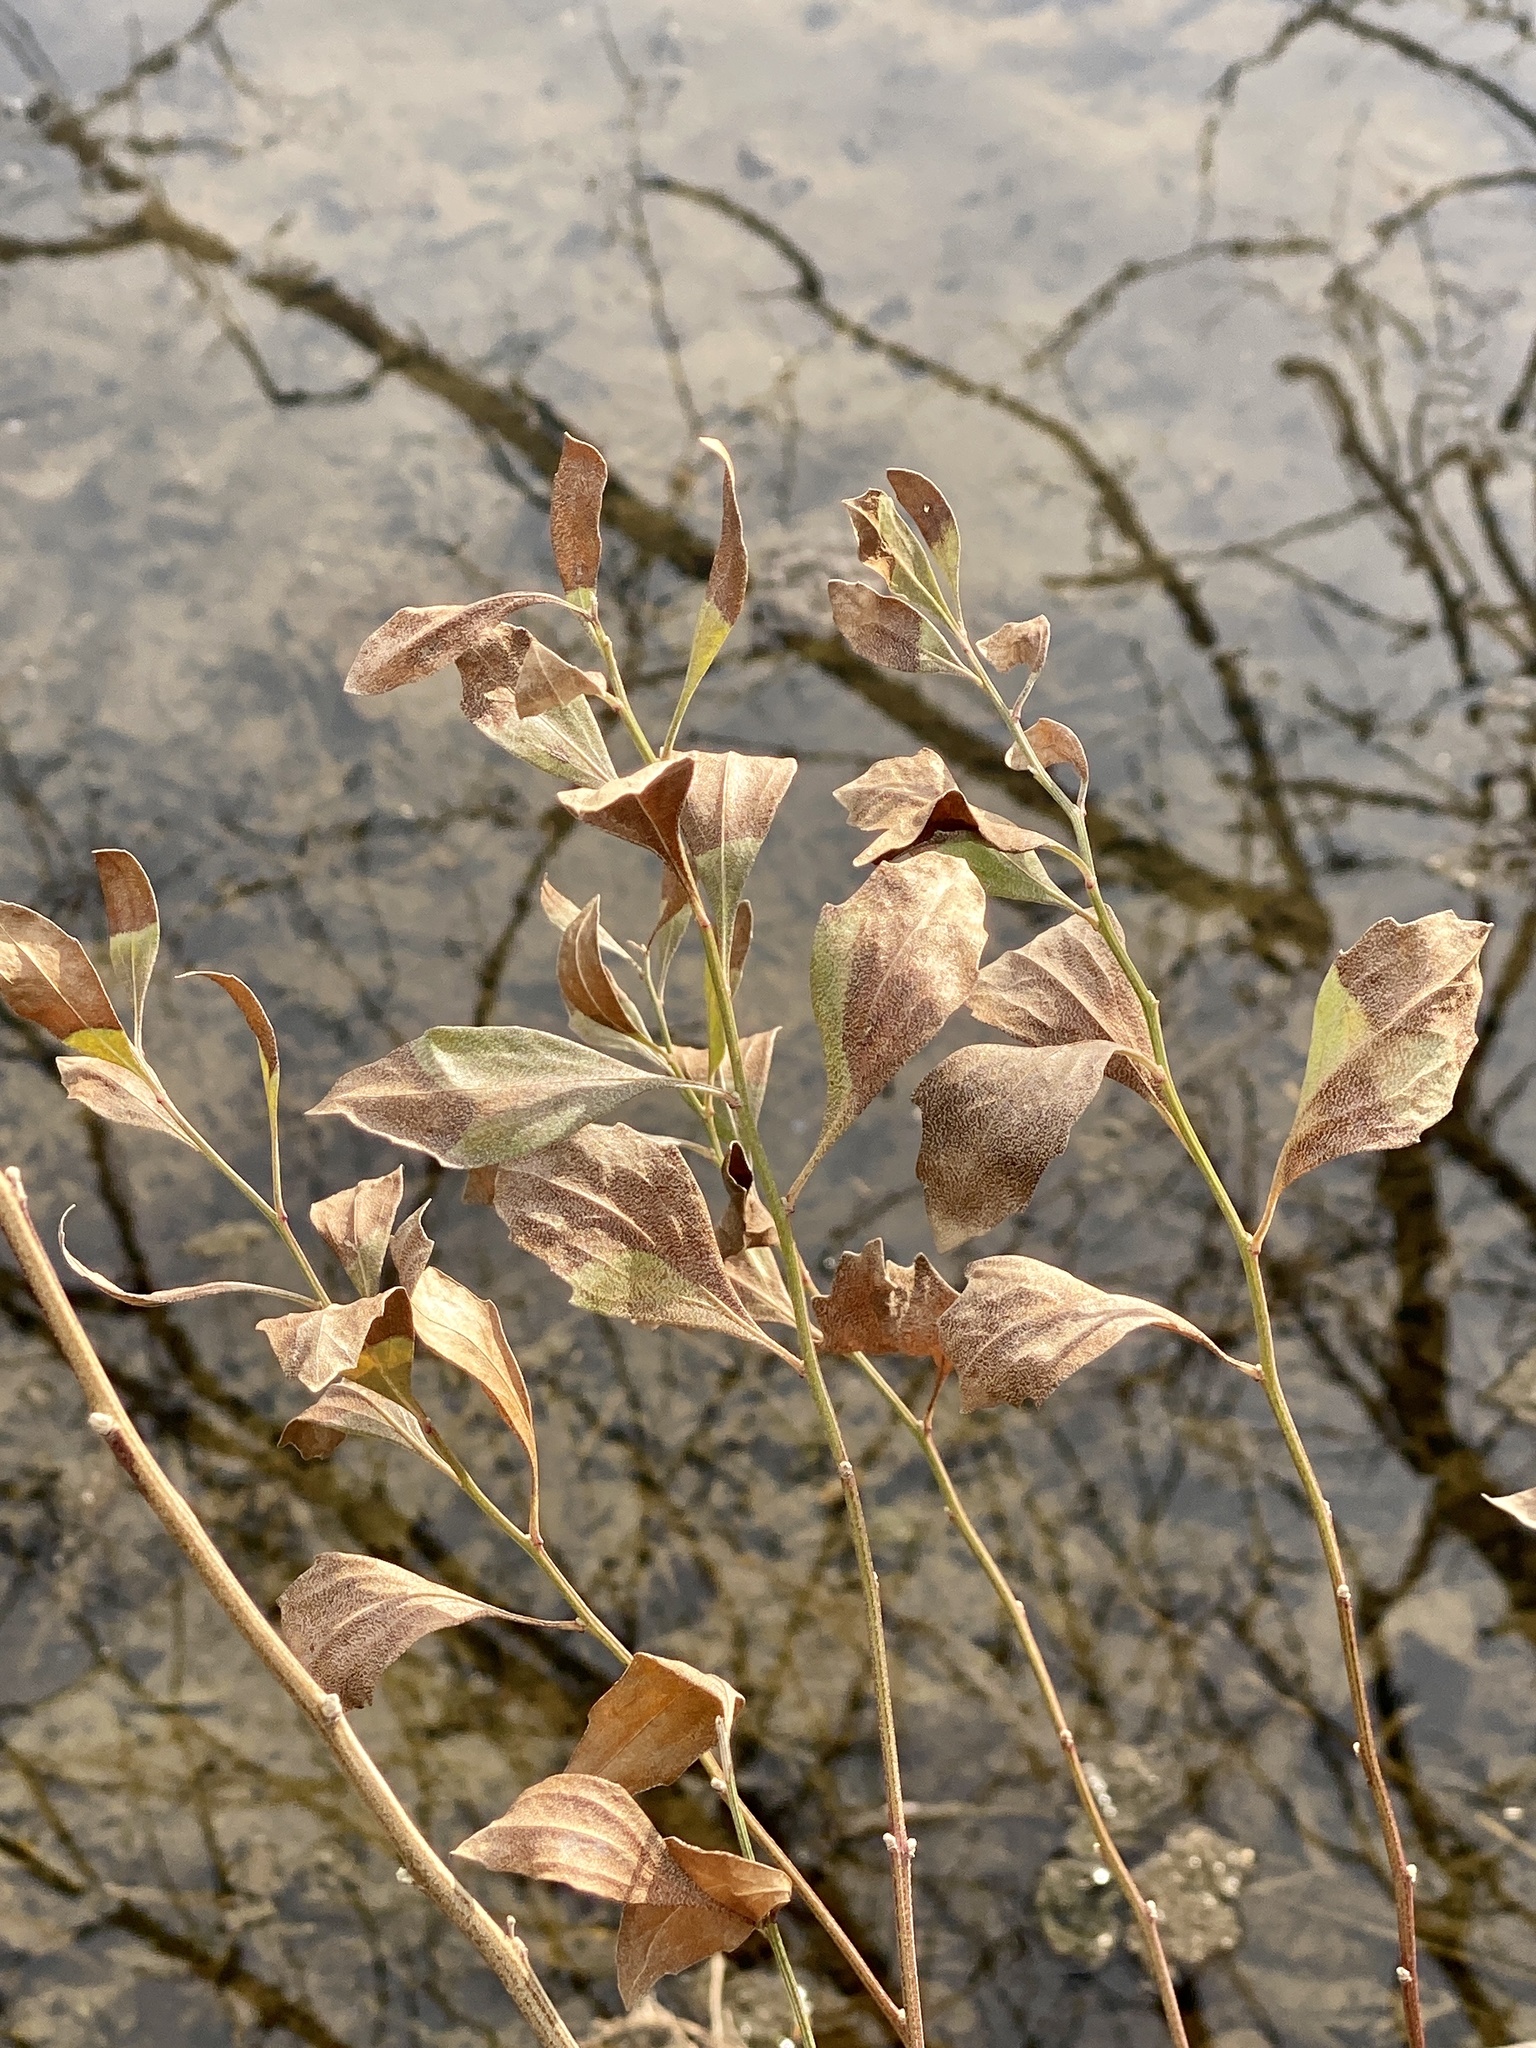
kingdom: Plantae
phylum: Tracheophyta
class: Magnoliopsida
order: Asterales
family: Asteraceae
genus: Baccharis
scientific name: Baccharis halimifolia
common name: Eastern baccharis
